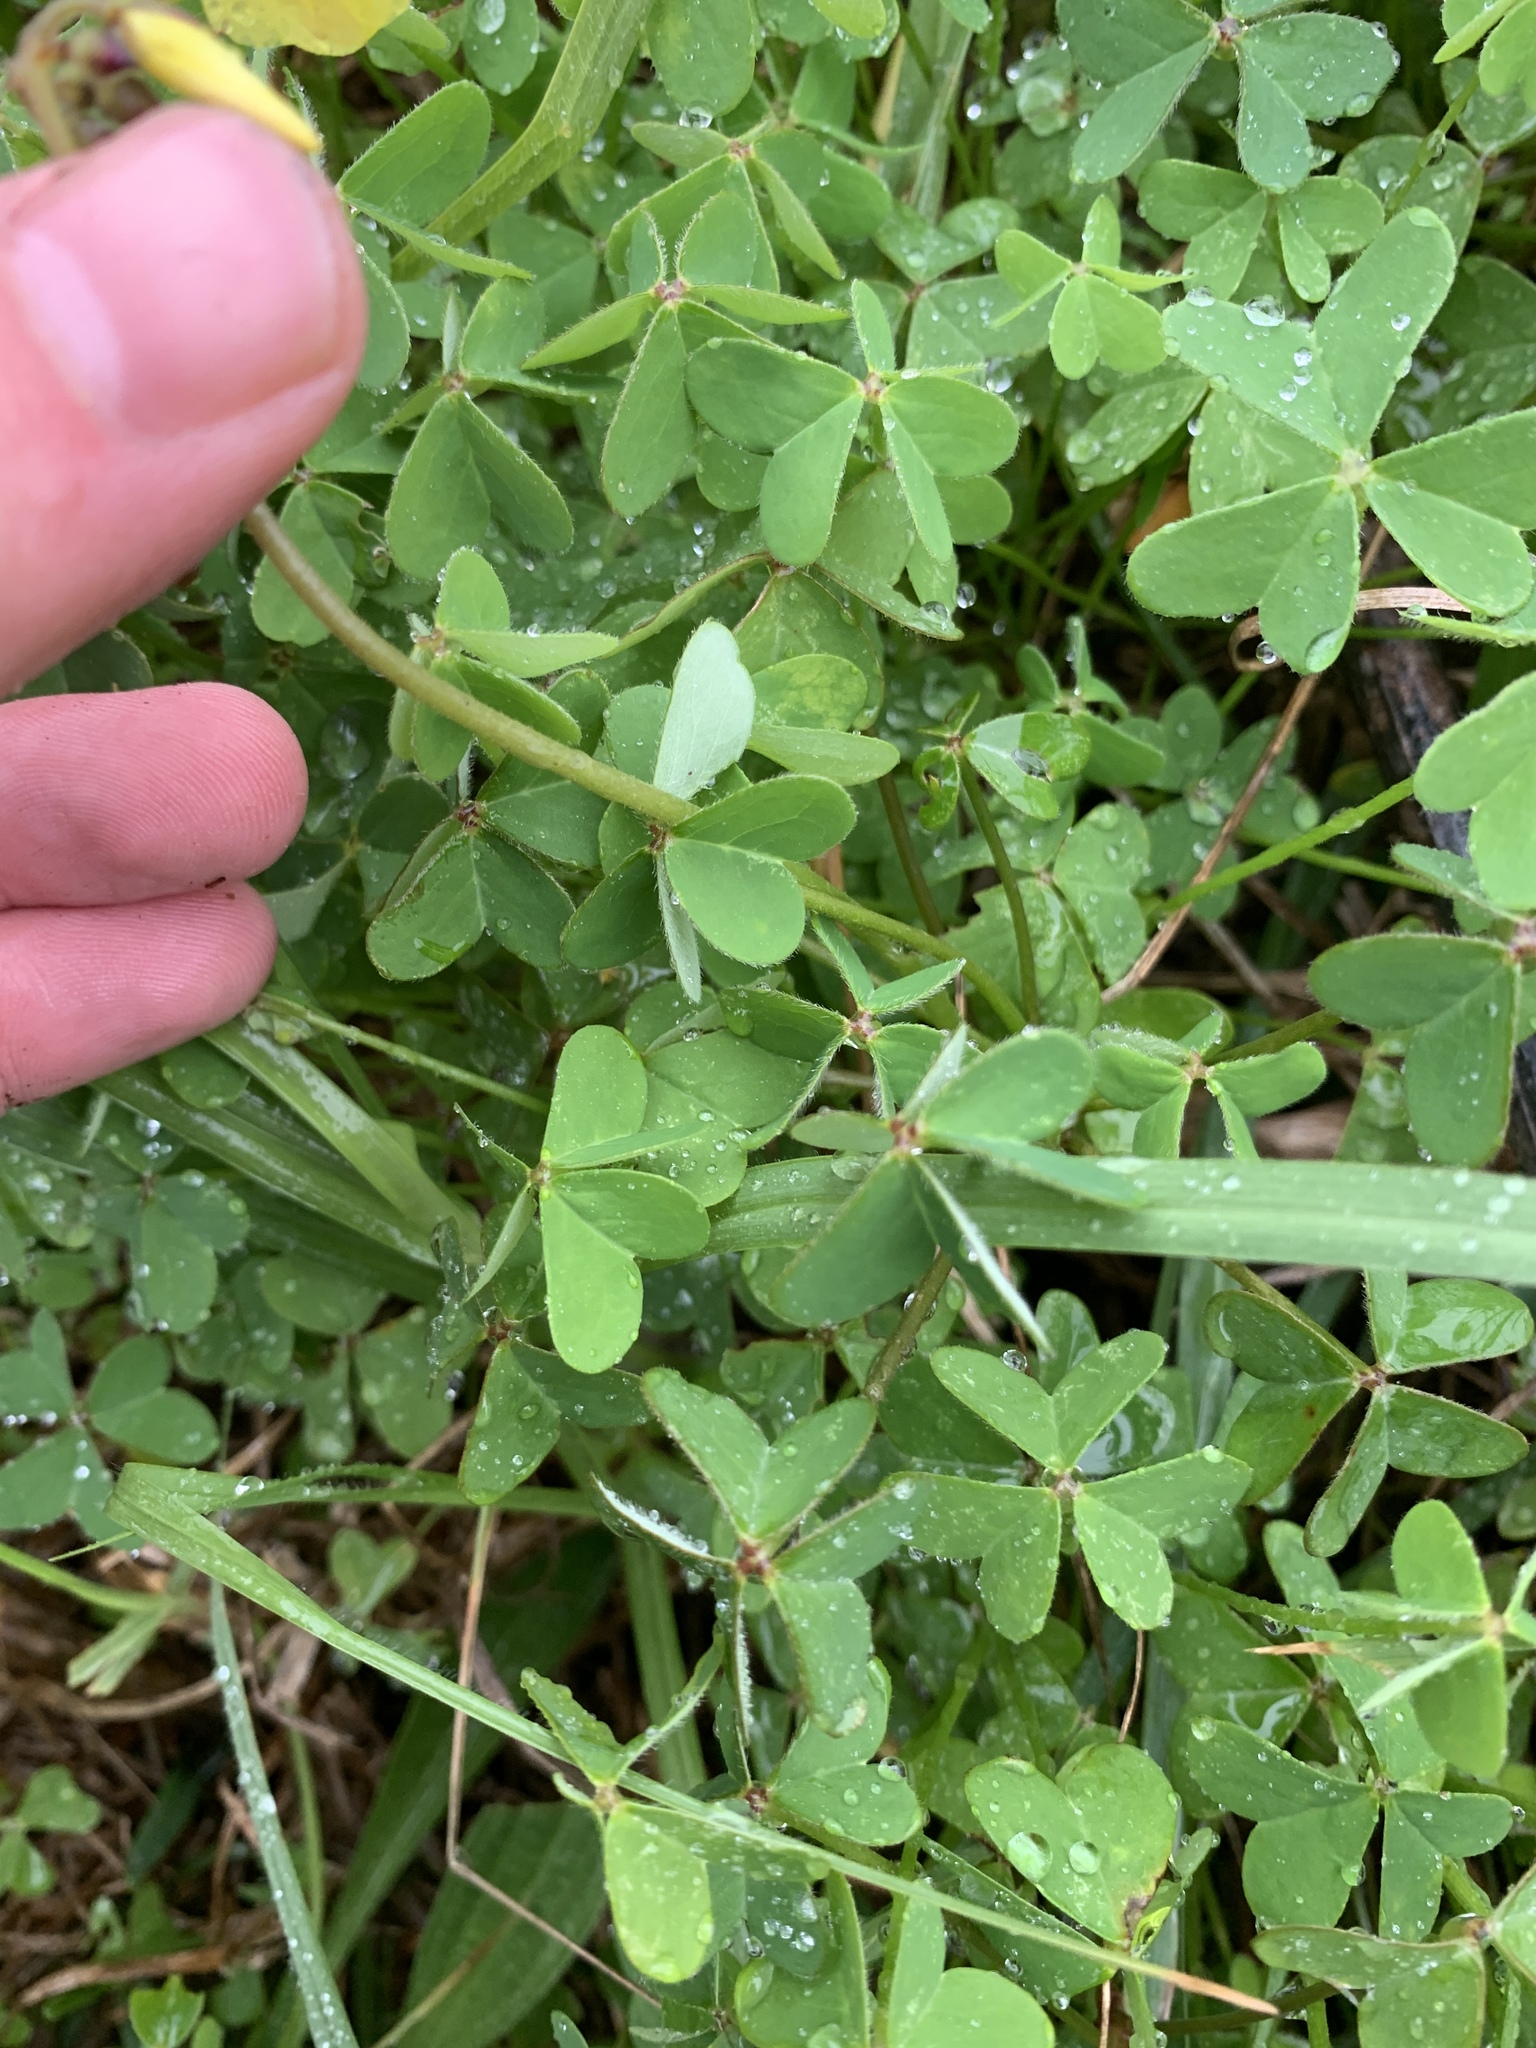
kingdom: Plantae
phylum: Tracheophyta
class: Magnoliopsida
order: Oxalidales
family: Oxalidaceae
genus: Oxalis
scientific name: Oxalis pes-caprae
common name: Bermuda-buttercup
